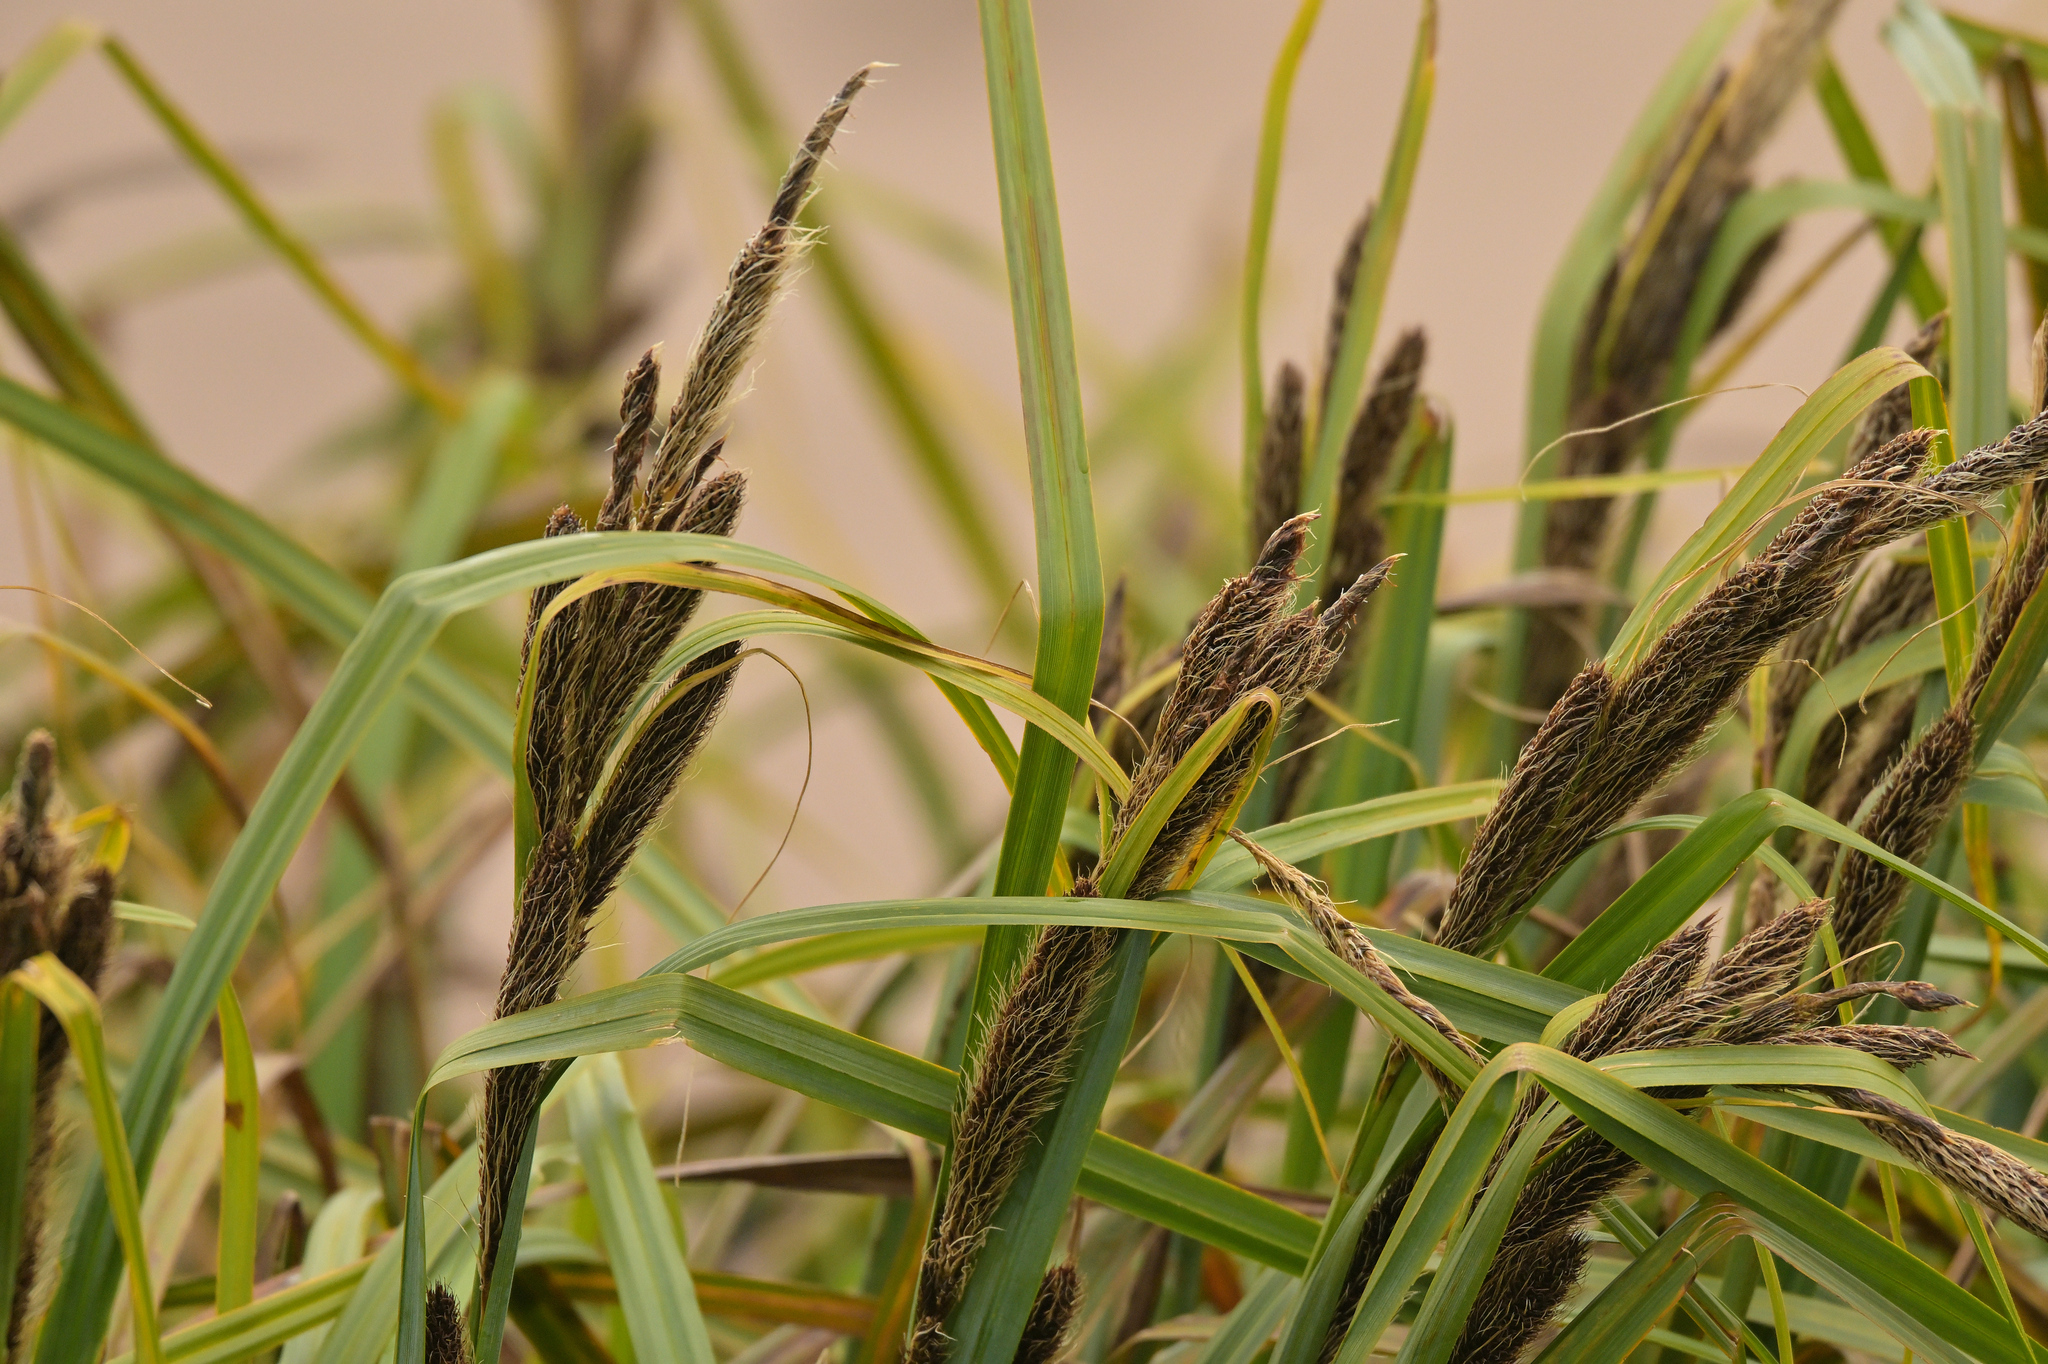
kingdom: Plantae
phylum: Tracheophyta
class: Liliopsida
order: Poales
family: Cyperaceae
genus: Carex
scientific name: Carex trifida
